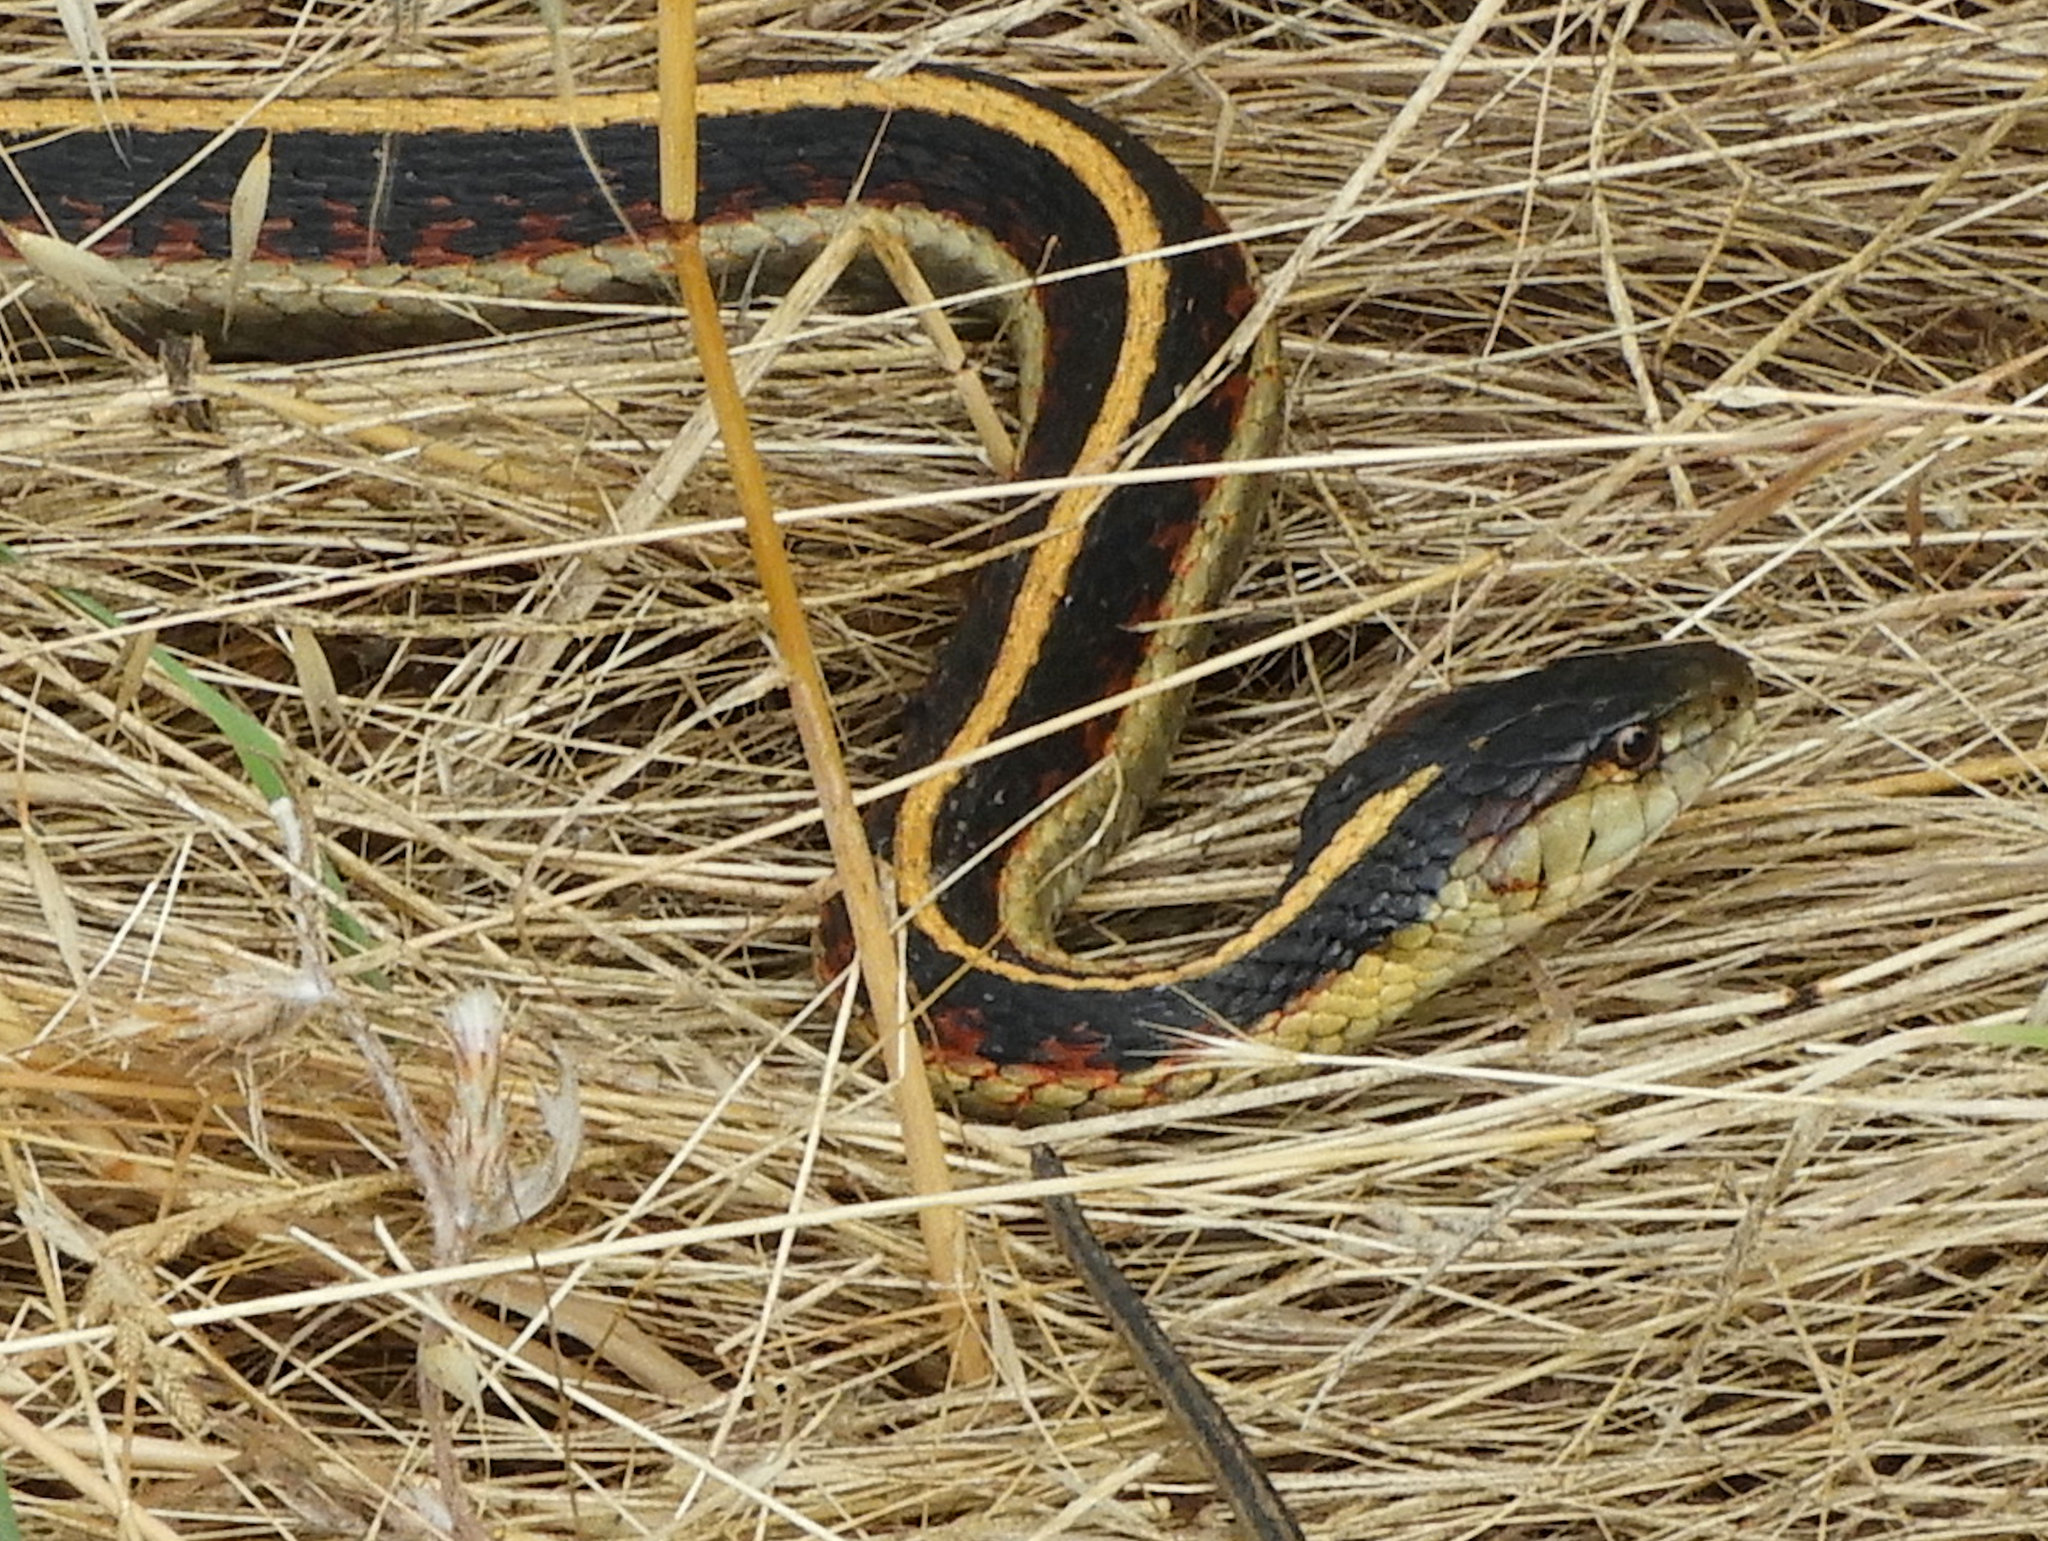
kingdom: Animalia
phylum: Chordata
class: Squamata
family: Colubridae
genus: Thamnophis
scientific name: Thamnophis sirtalis
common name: Common garter snake
